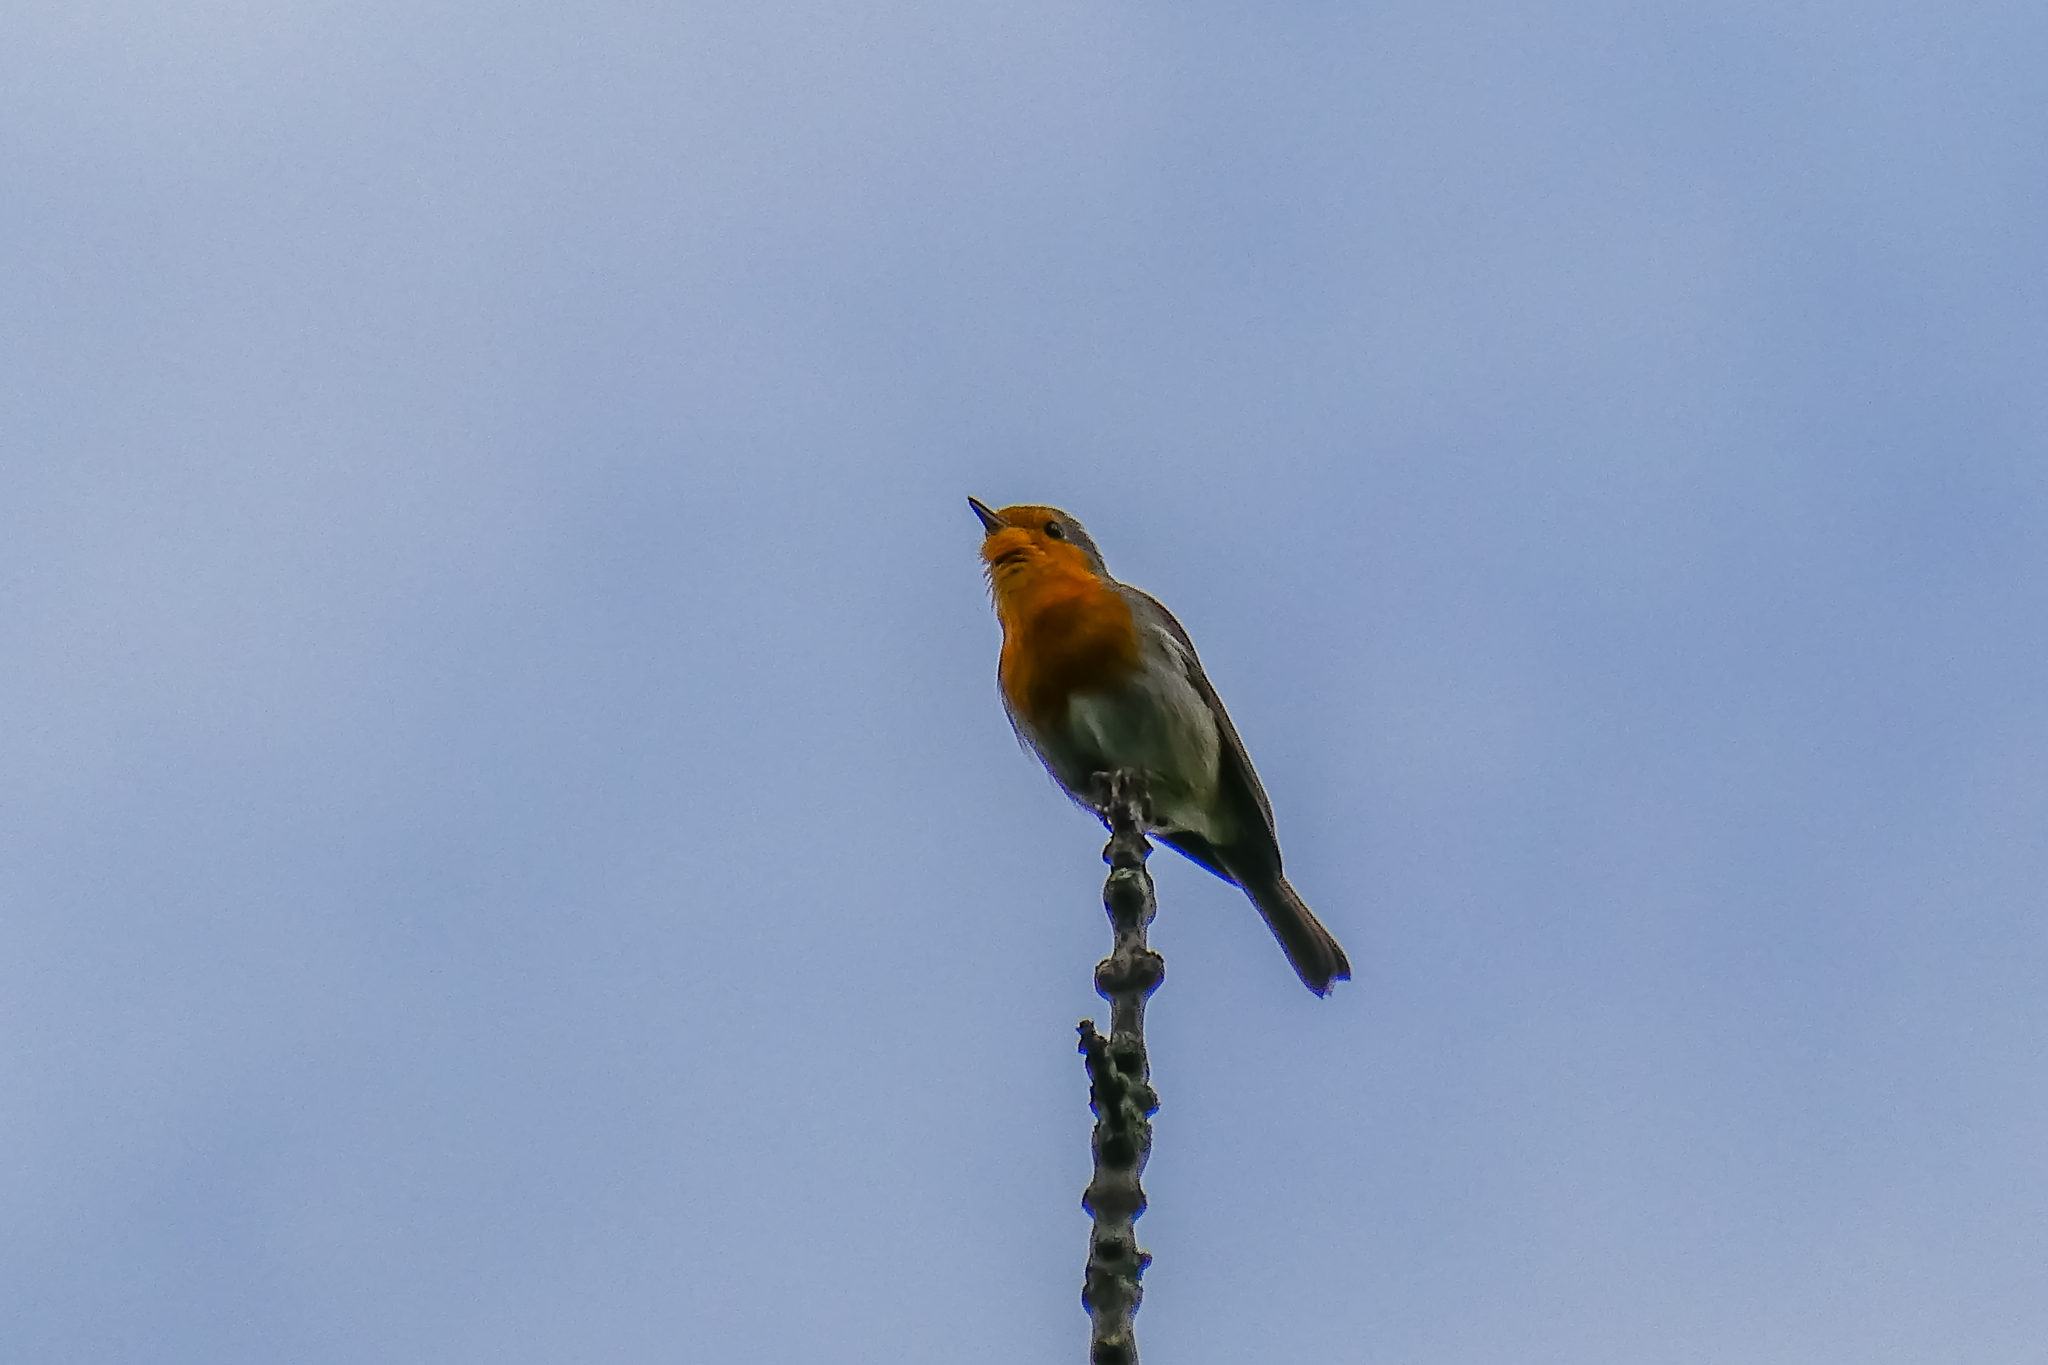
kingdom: Animalia
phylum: Chordata
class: Aves
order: Passeriformes
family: Muscicapidae
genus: Erithacus
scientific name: Erithacus rubecula
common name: European robin
